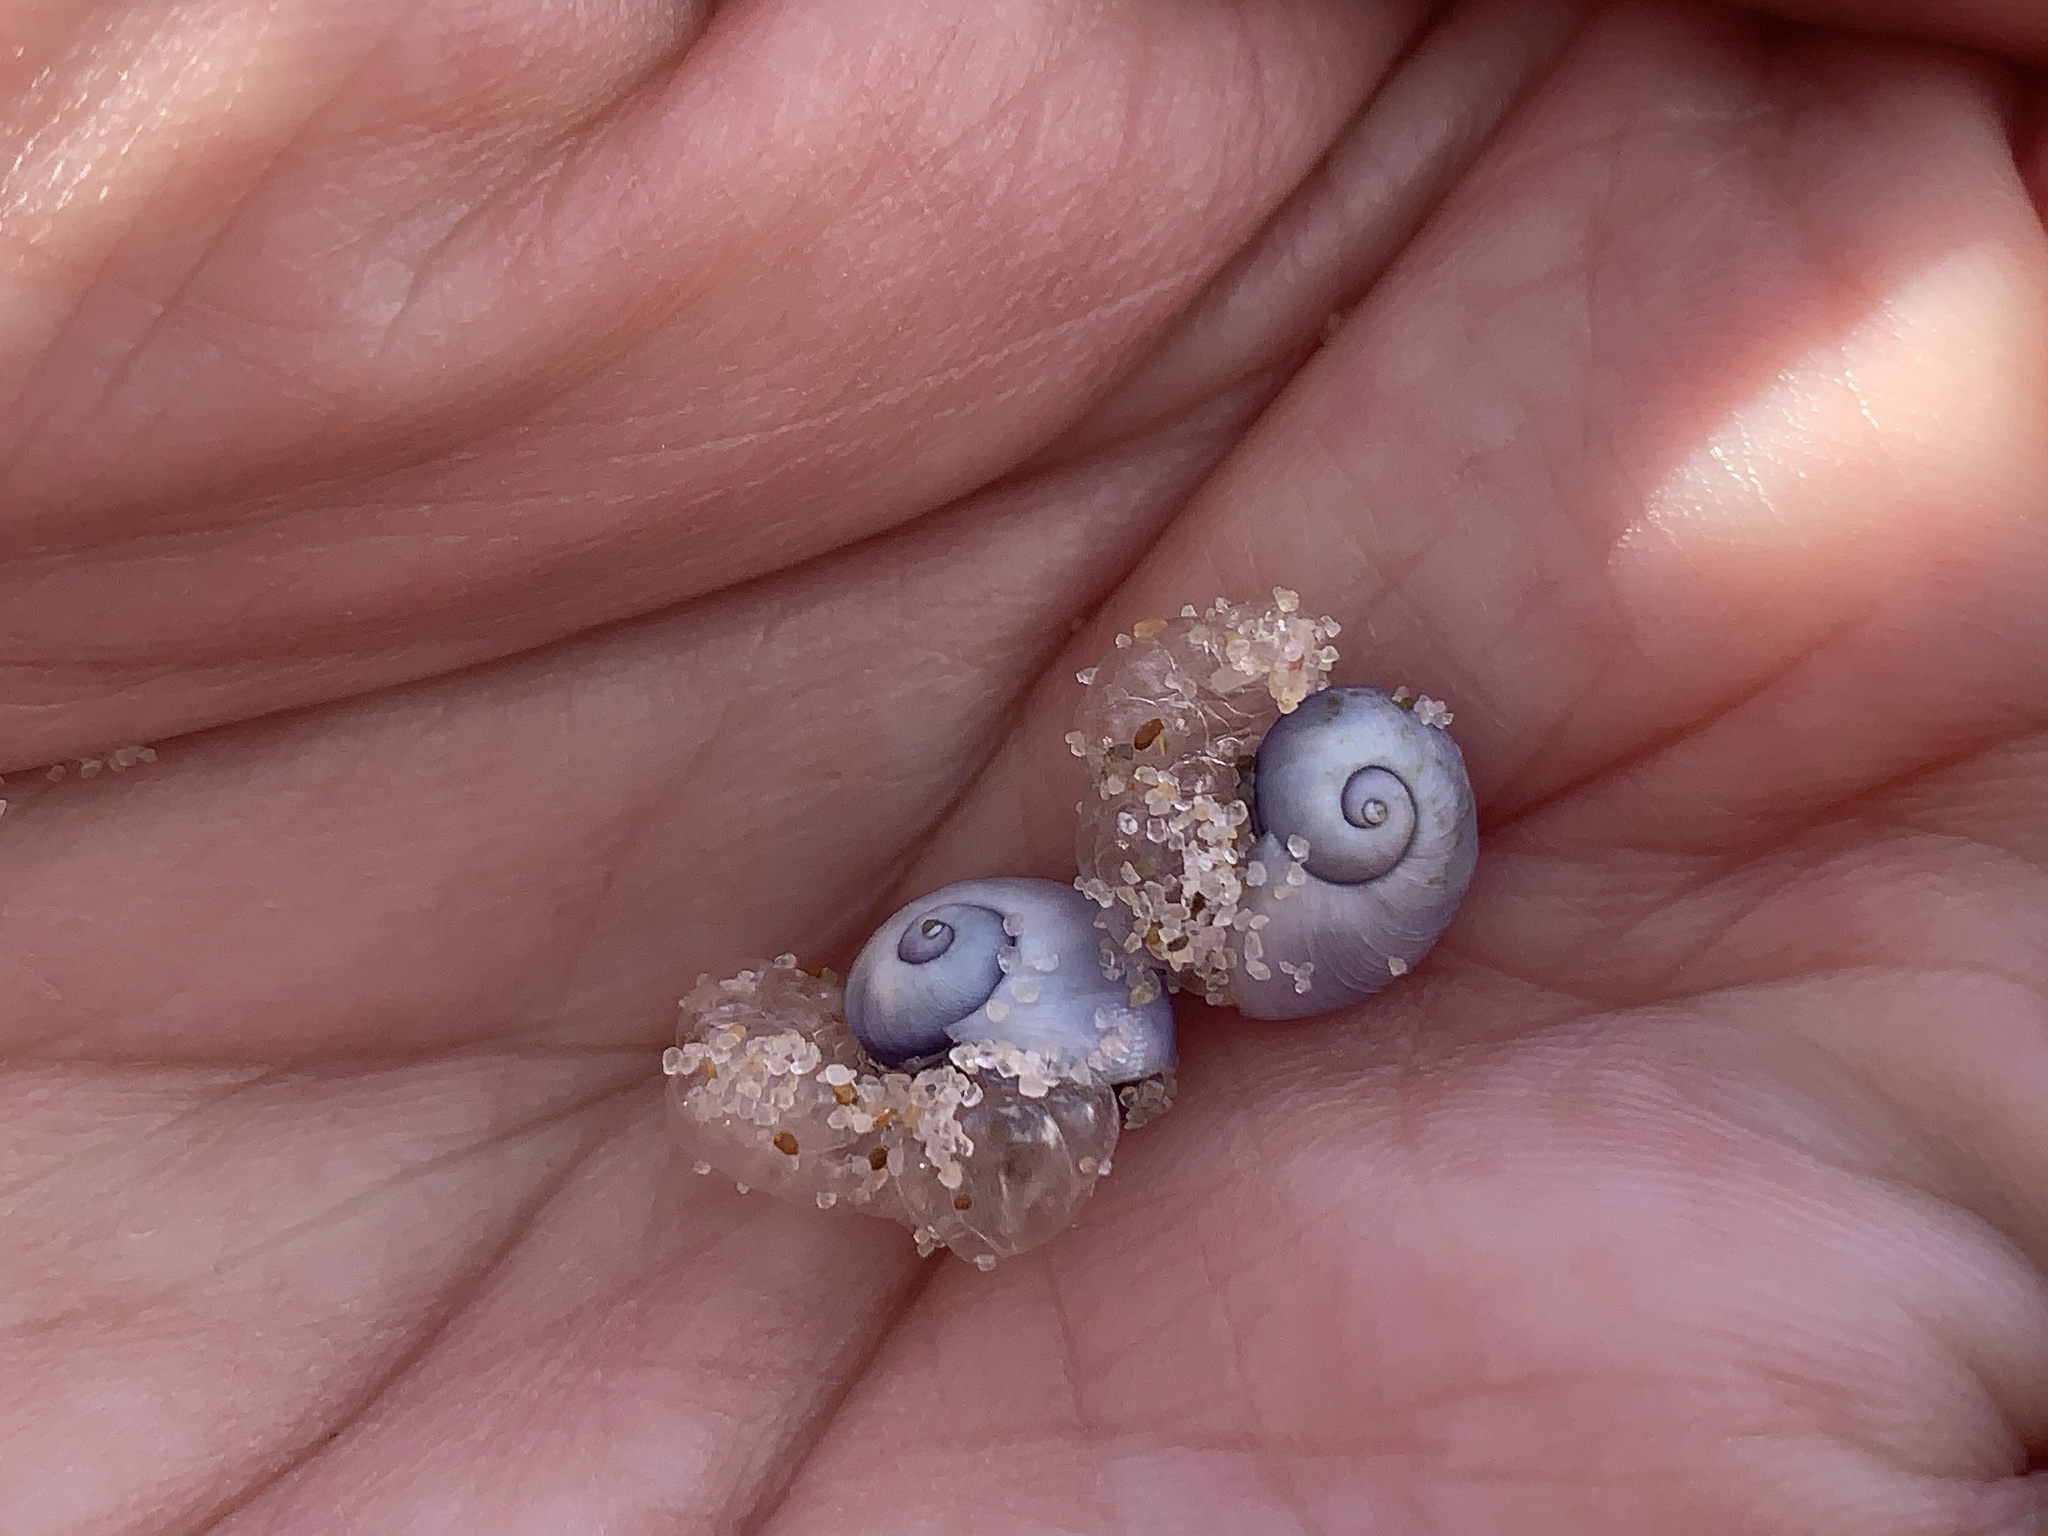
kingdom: Animalia
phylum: Mollusca
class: Gastropoda
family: Epitoniidae
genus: Janthina
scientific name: Janthina janthina
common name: Common janthina
